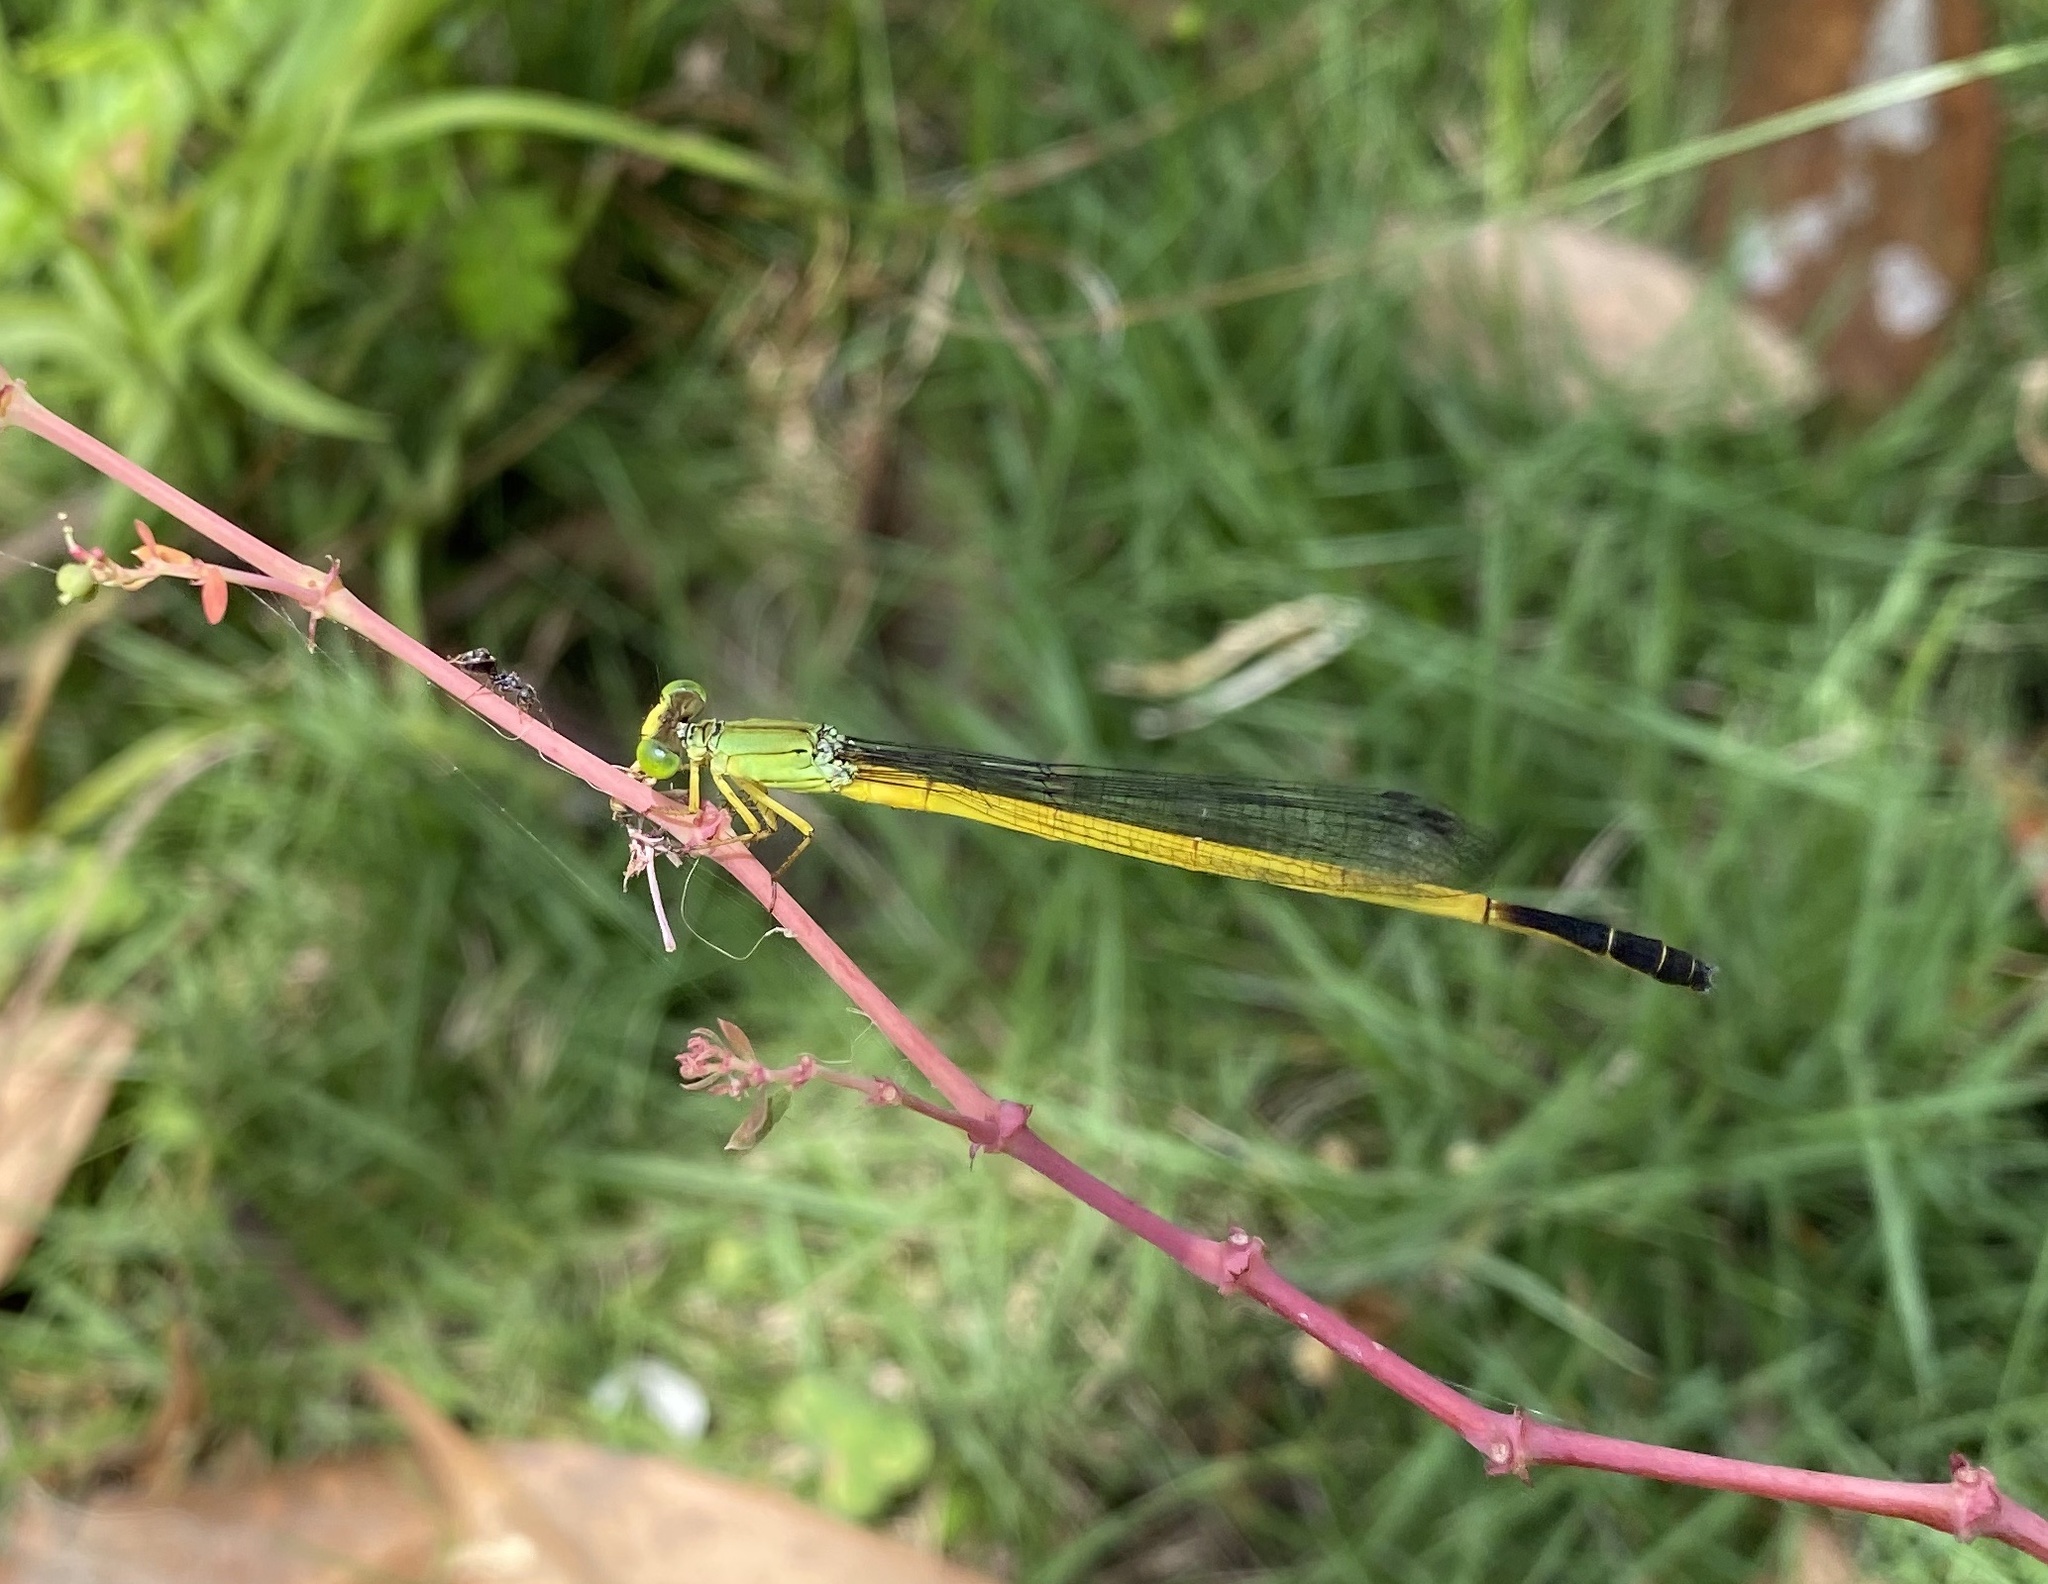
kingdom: Animalia
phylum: Arthropoda
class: Insecta
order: Odonata
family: Coenagrionidae
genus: Ceriagrion
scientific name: Ceriagrion fallax
